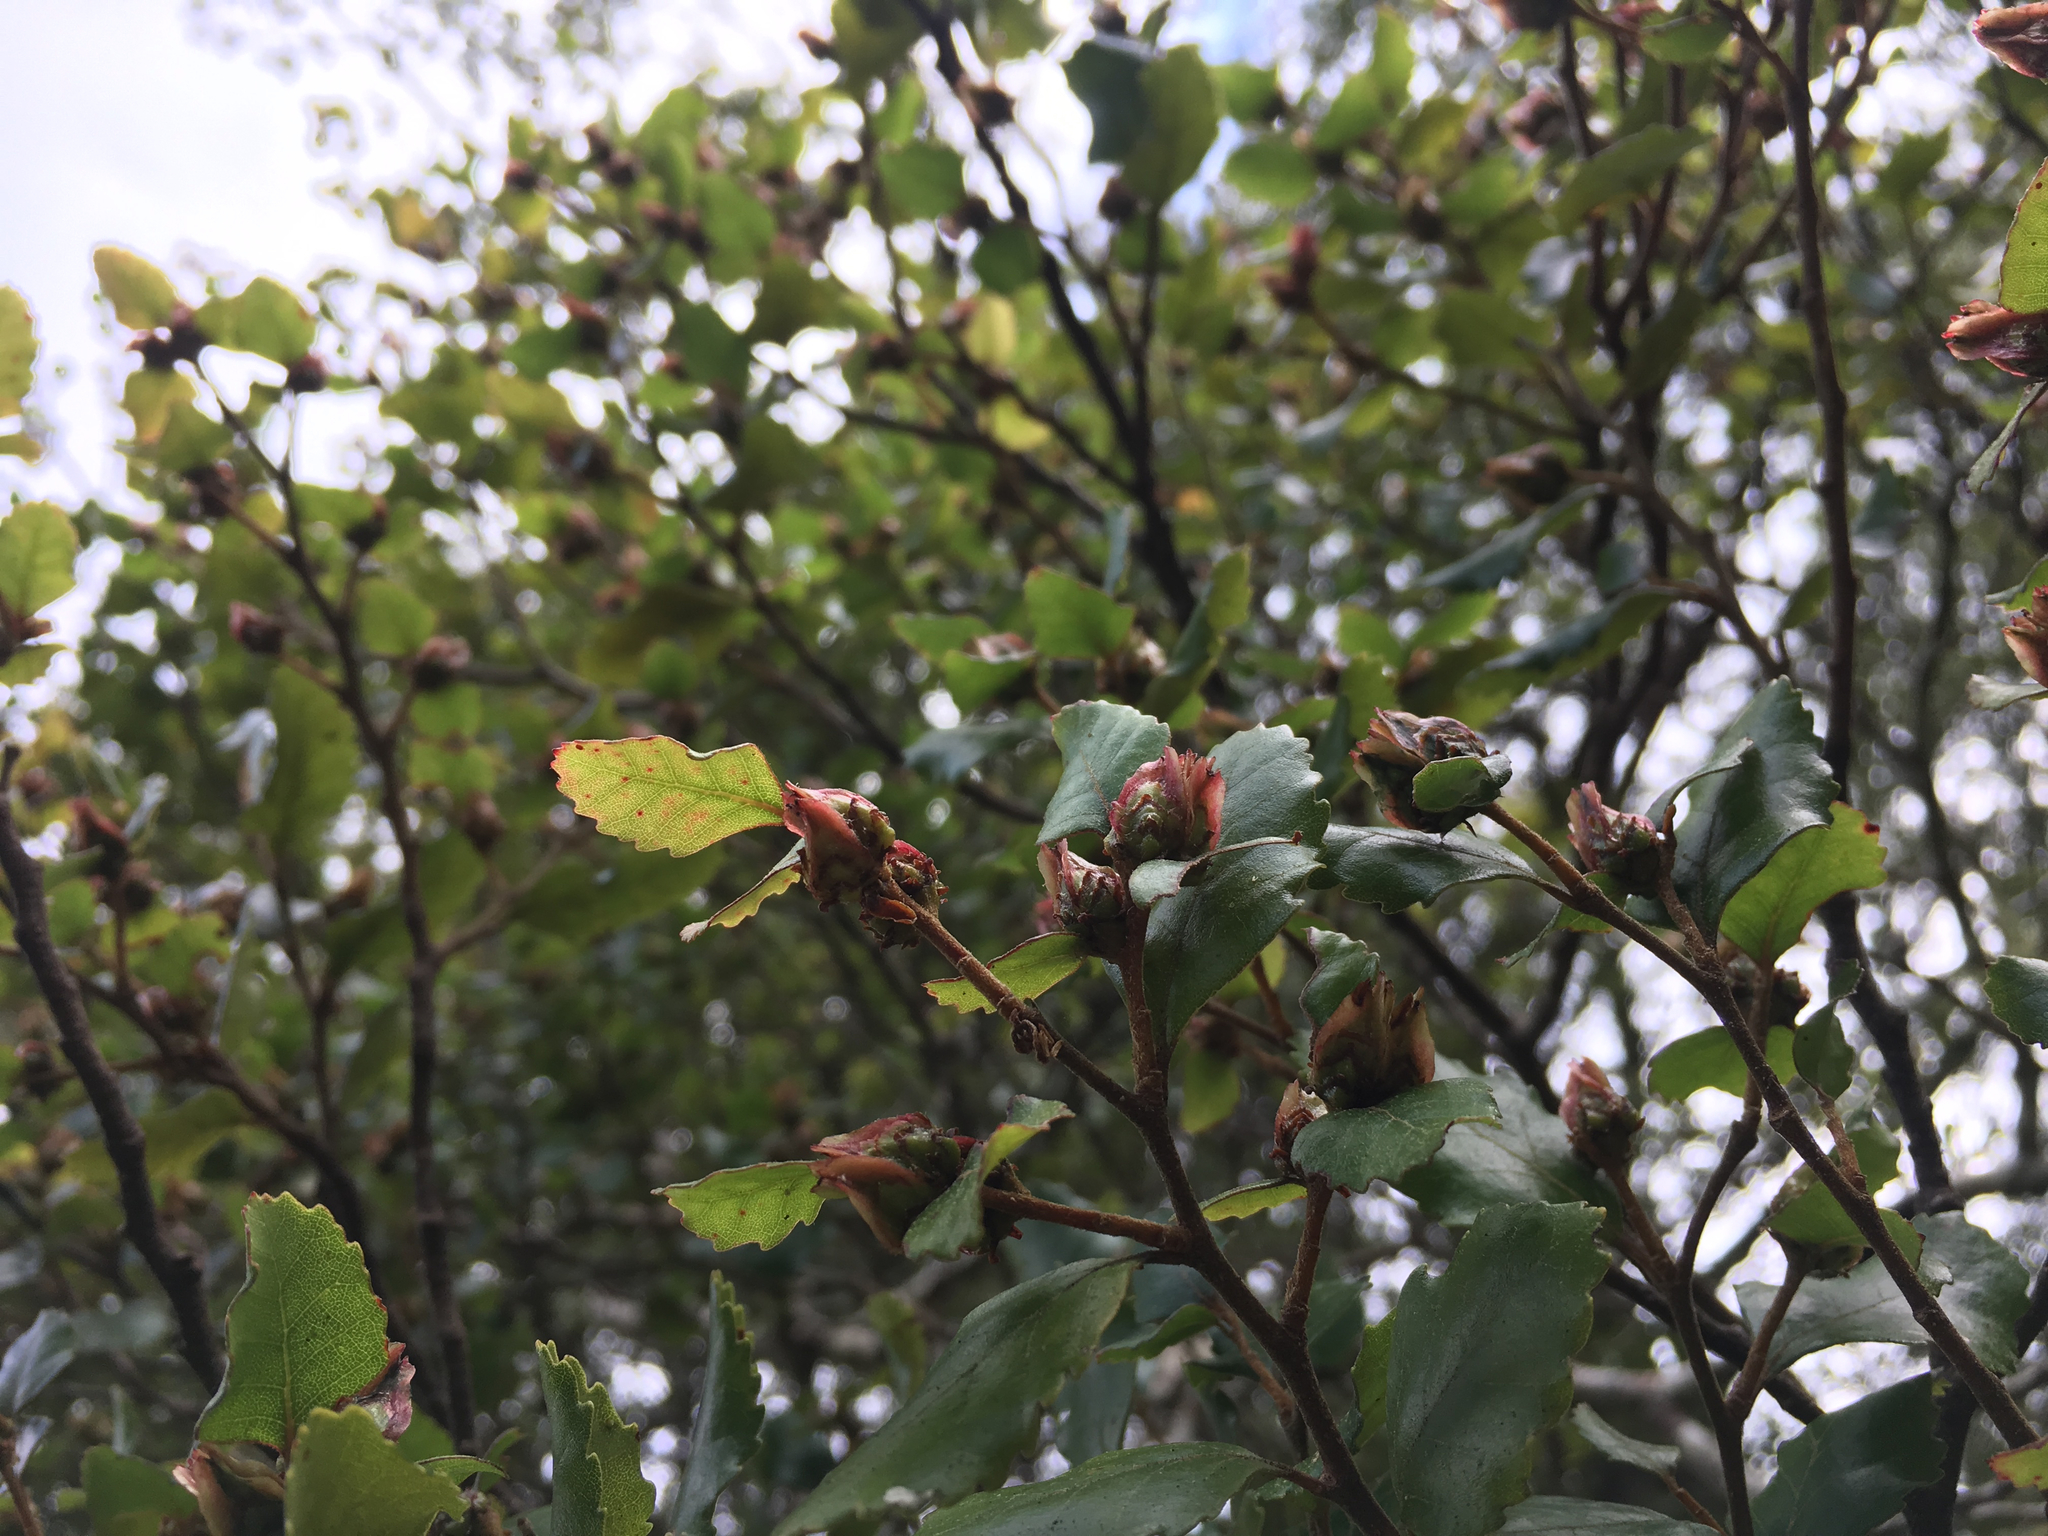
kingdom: Plantae
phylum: Tracheophyta
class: Magnoliopsida
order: Fagales
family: Nothofagaceae
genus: Nothofagus
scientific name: Nothofagus truncata
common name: Hard beech
